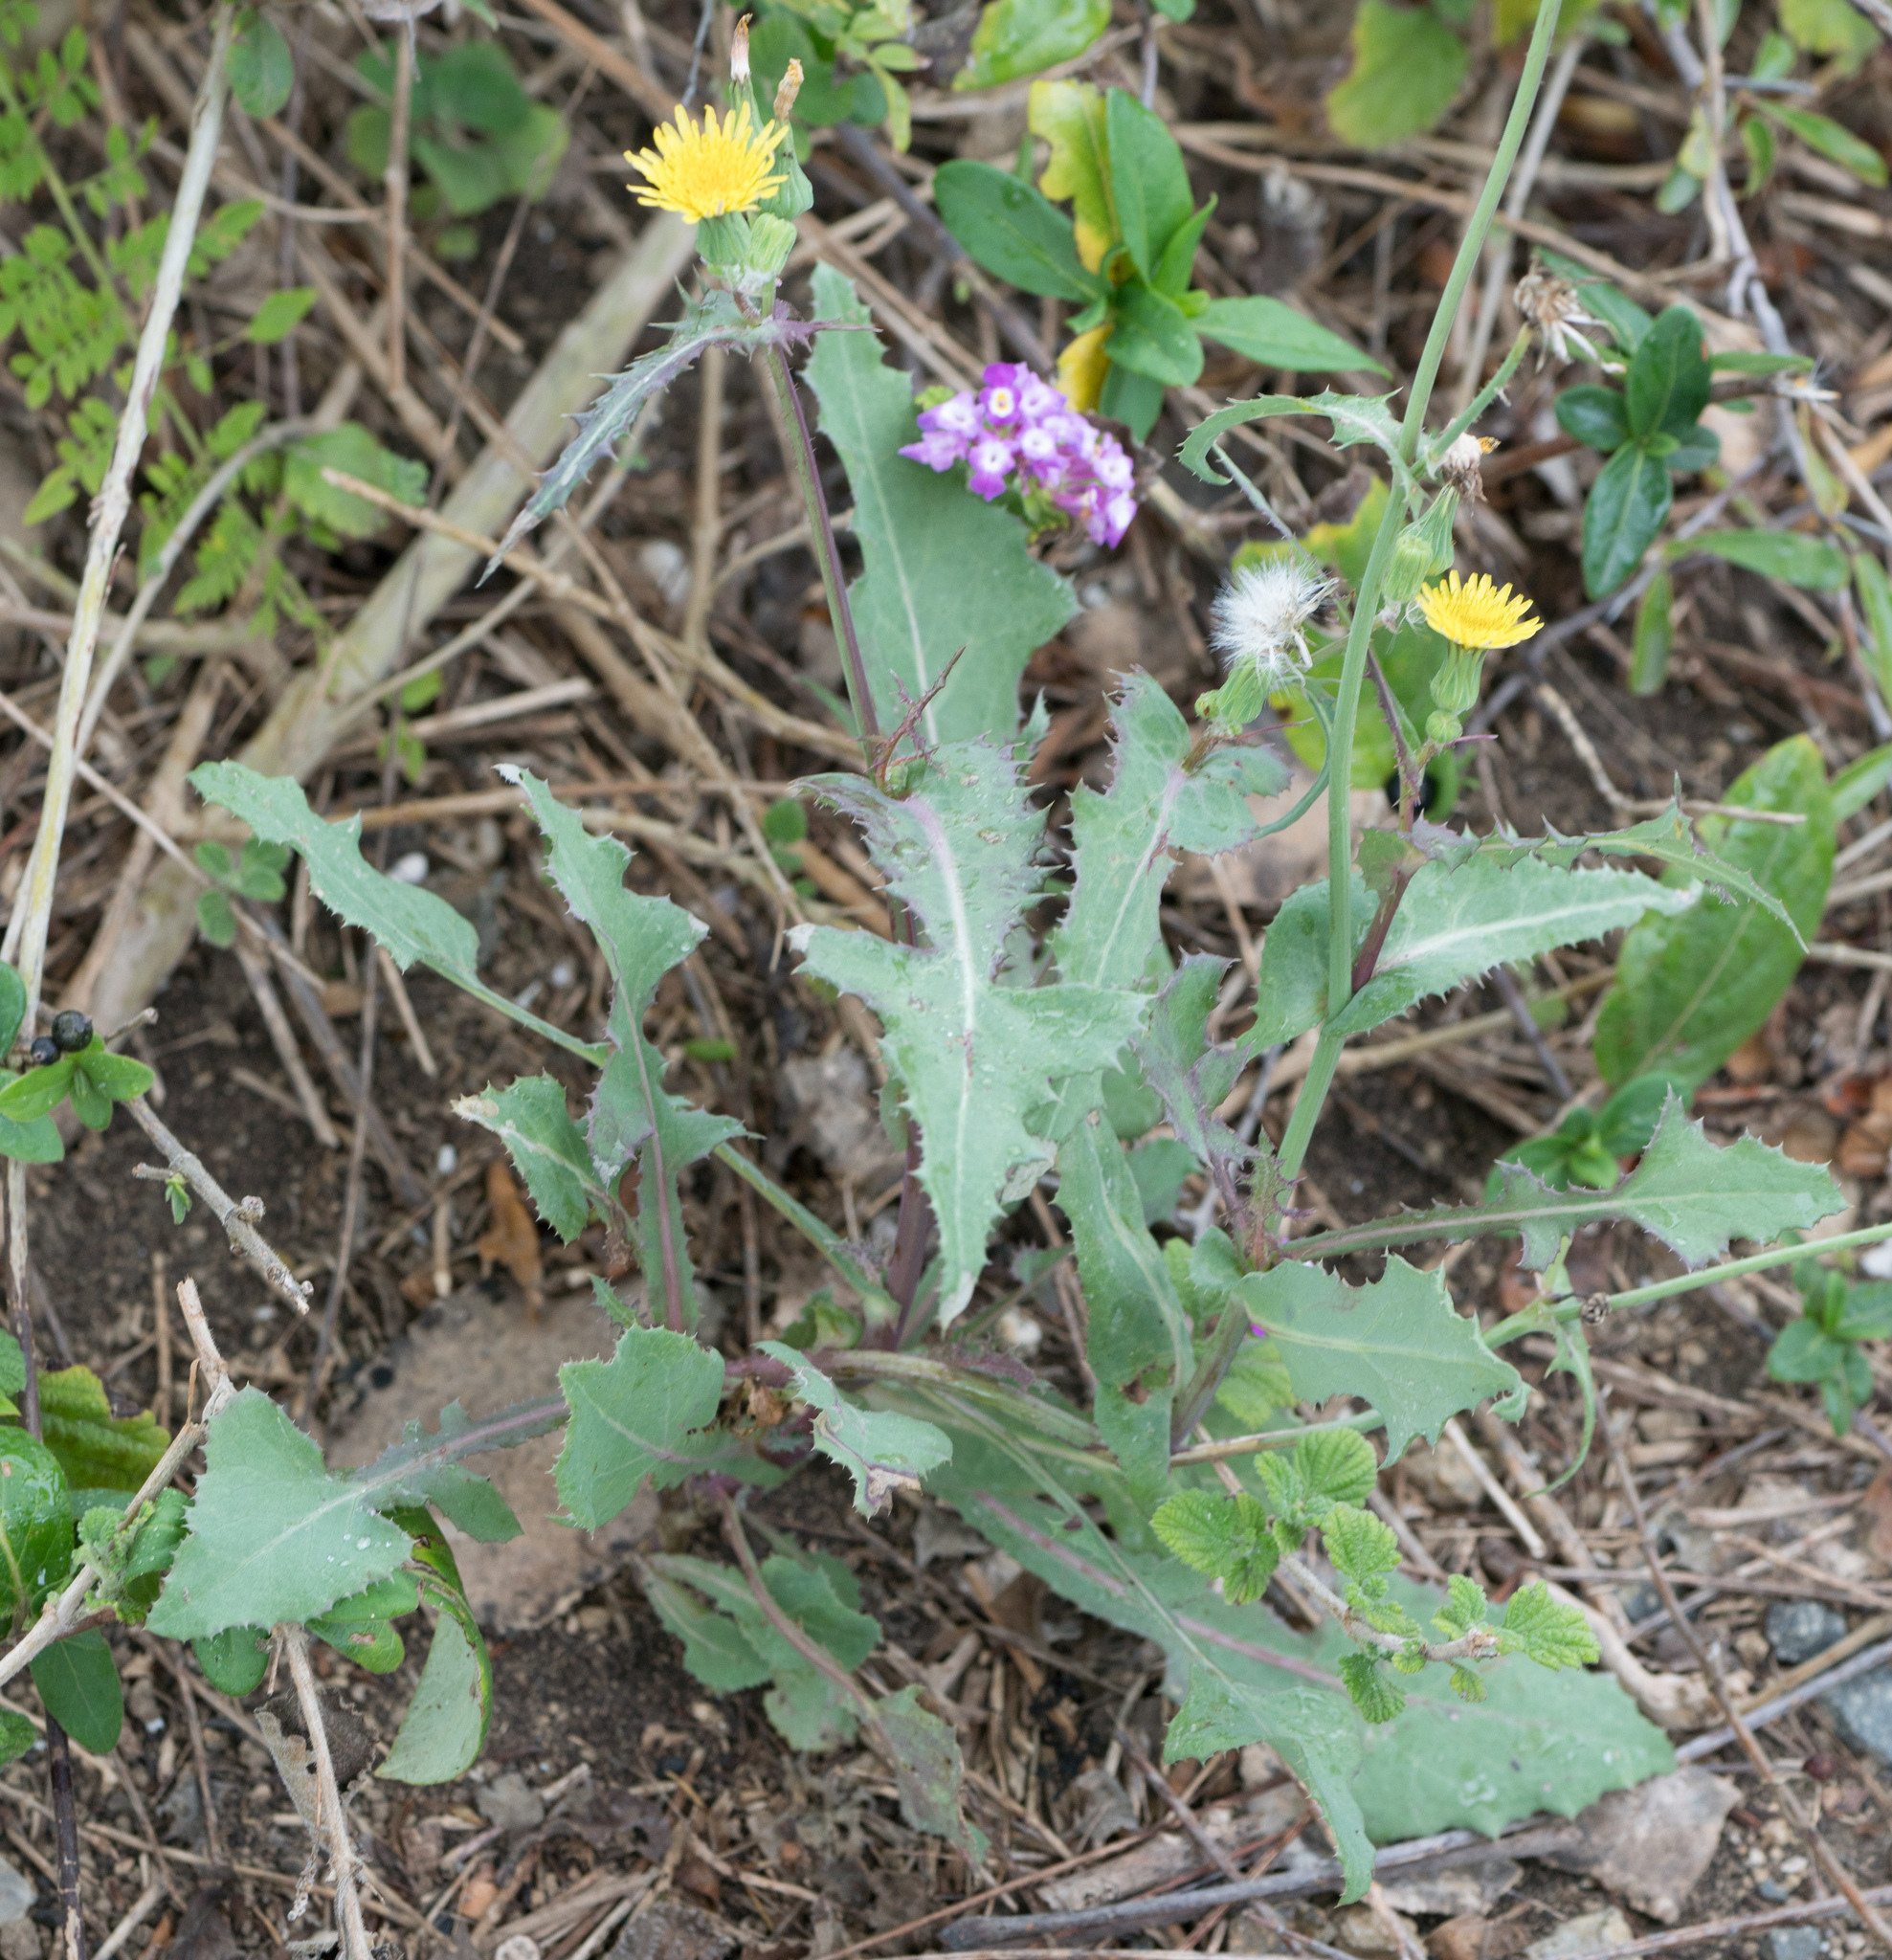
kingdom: Plantae
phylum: Tracheophyta
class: Magnoliopsida
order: Asterales
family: Asteraceae
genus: Sonchus
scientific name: Sonchus oleraceus
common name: Common sowthistle
